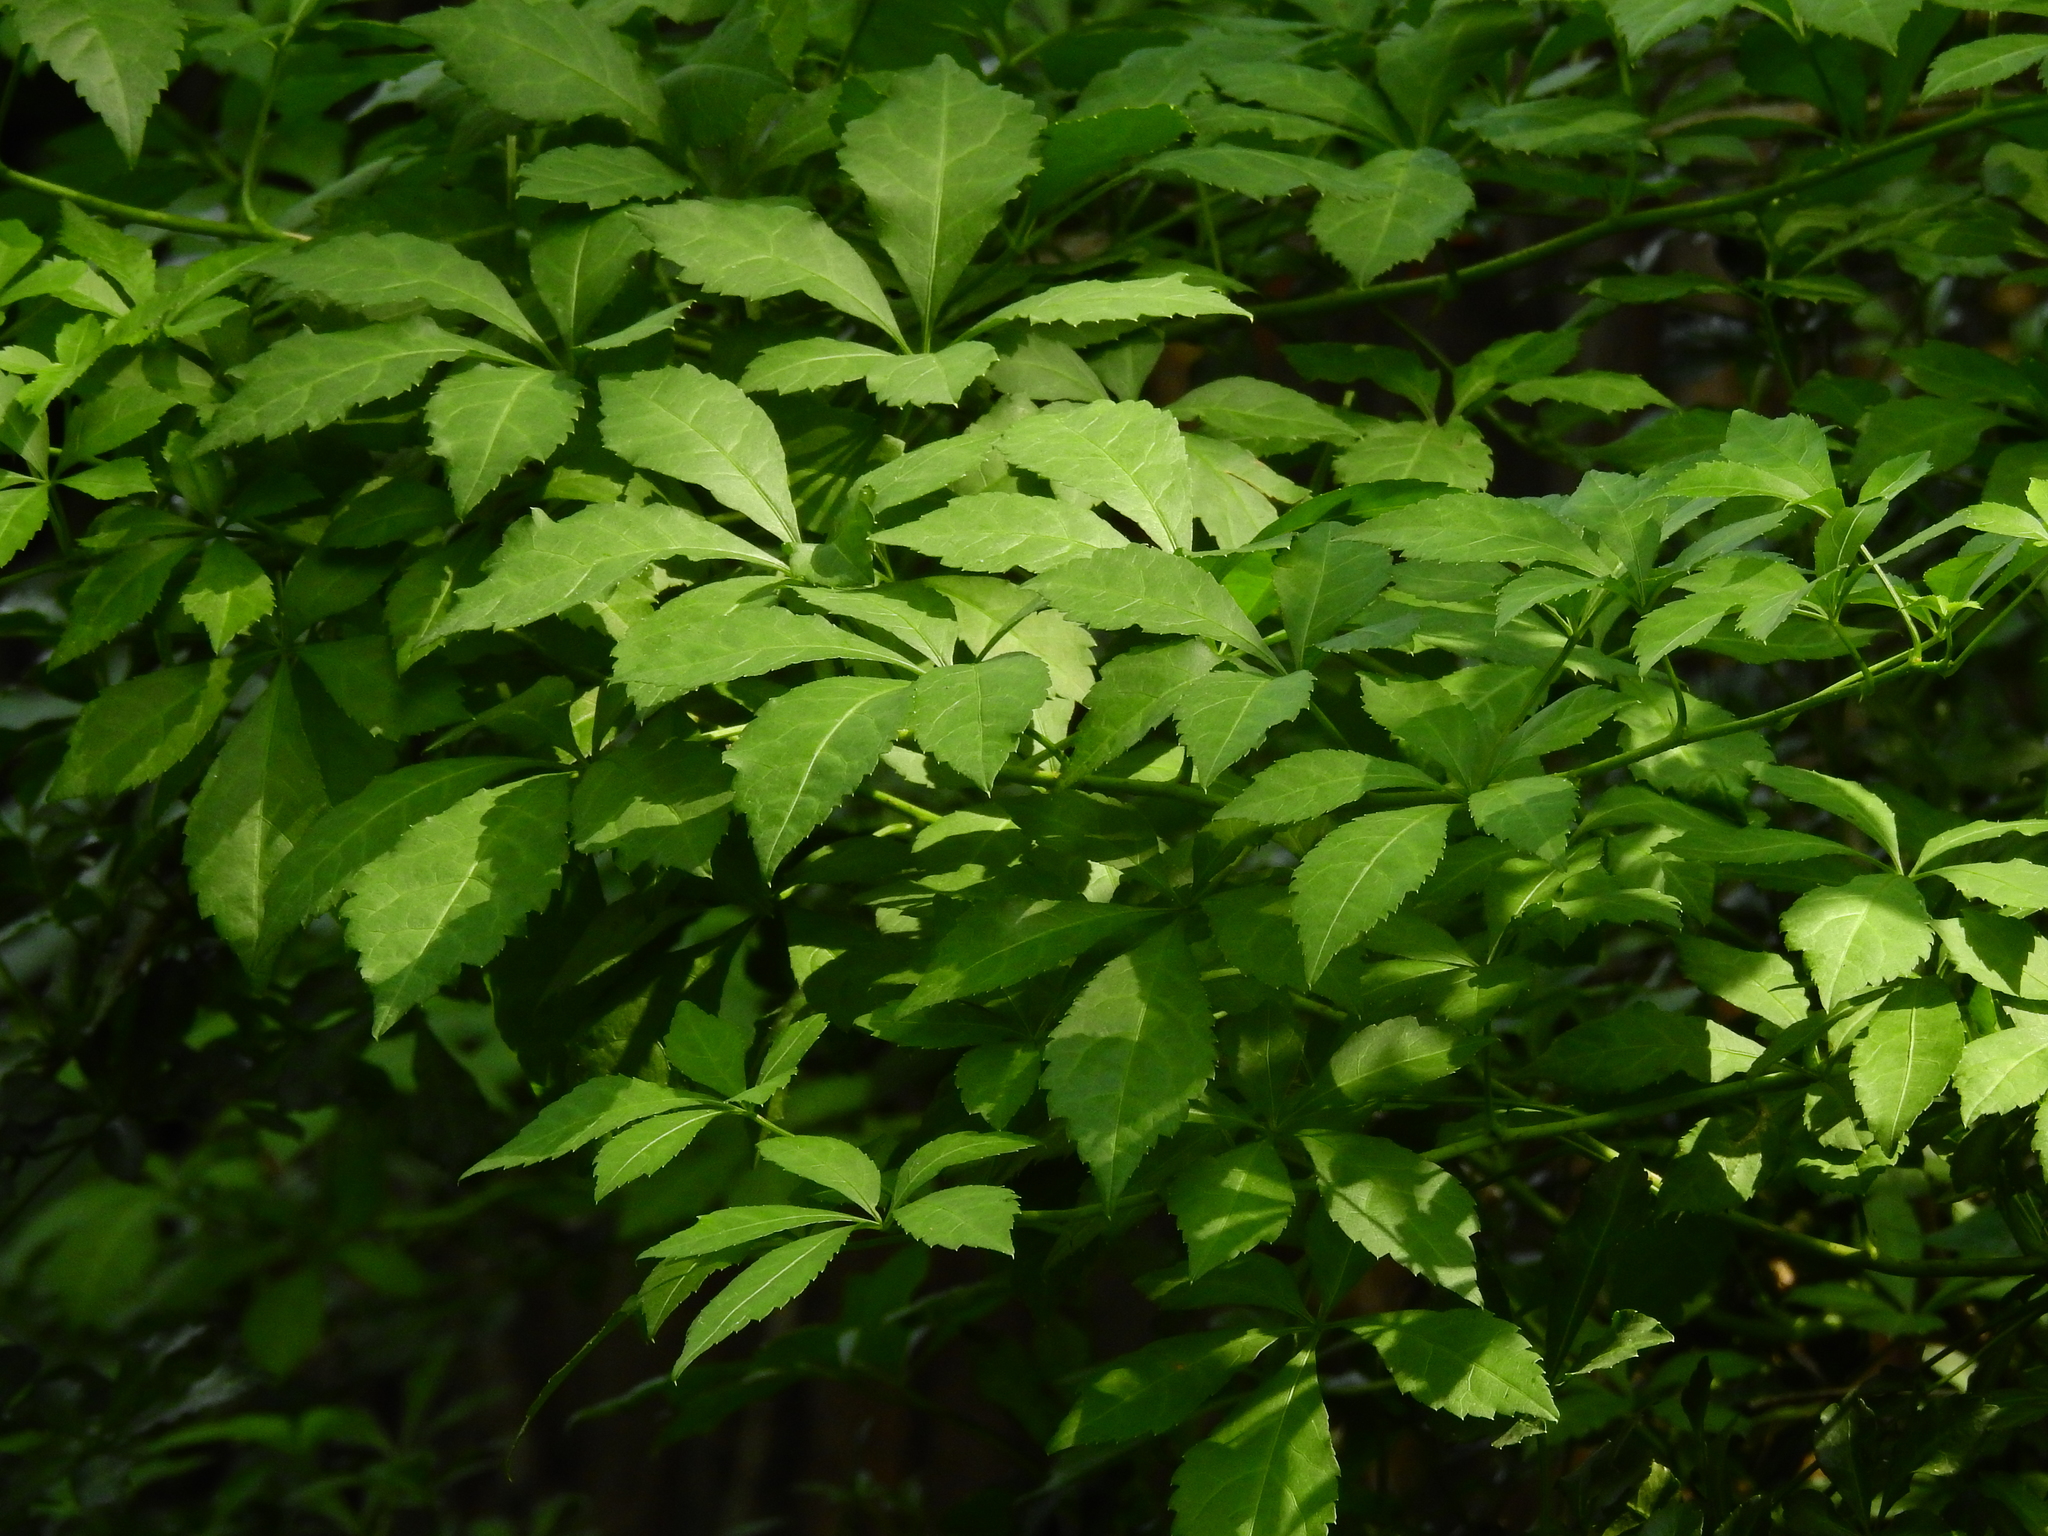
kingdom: Plantae
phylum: Tracheophyta
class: Magnoliopsida
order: Apiales
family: Araliaceae
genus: Eleutherococcus
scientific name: Eleutherococcus sieboldianus
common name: Ginseng
